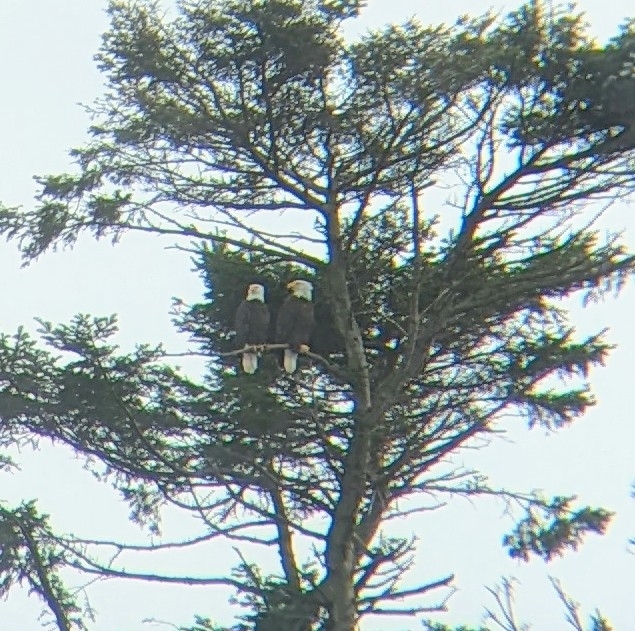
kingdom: Animalia
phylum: Chordata
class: Aves
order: Accipitriformes
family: Accipitridae
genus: Haliaeetus
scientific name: Haliaeetus leucocephalus
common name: Bald eagle
